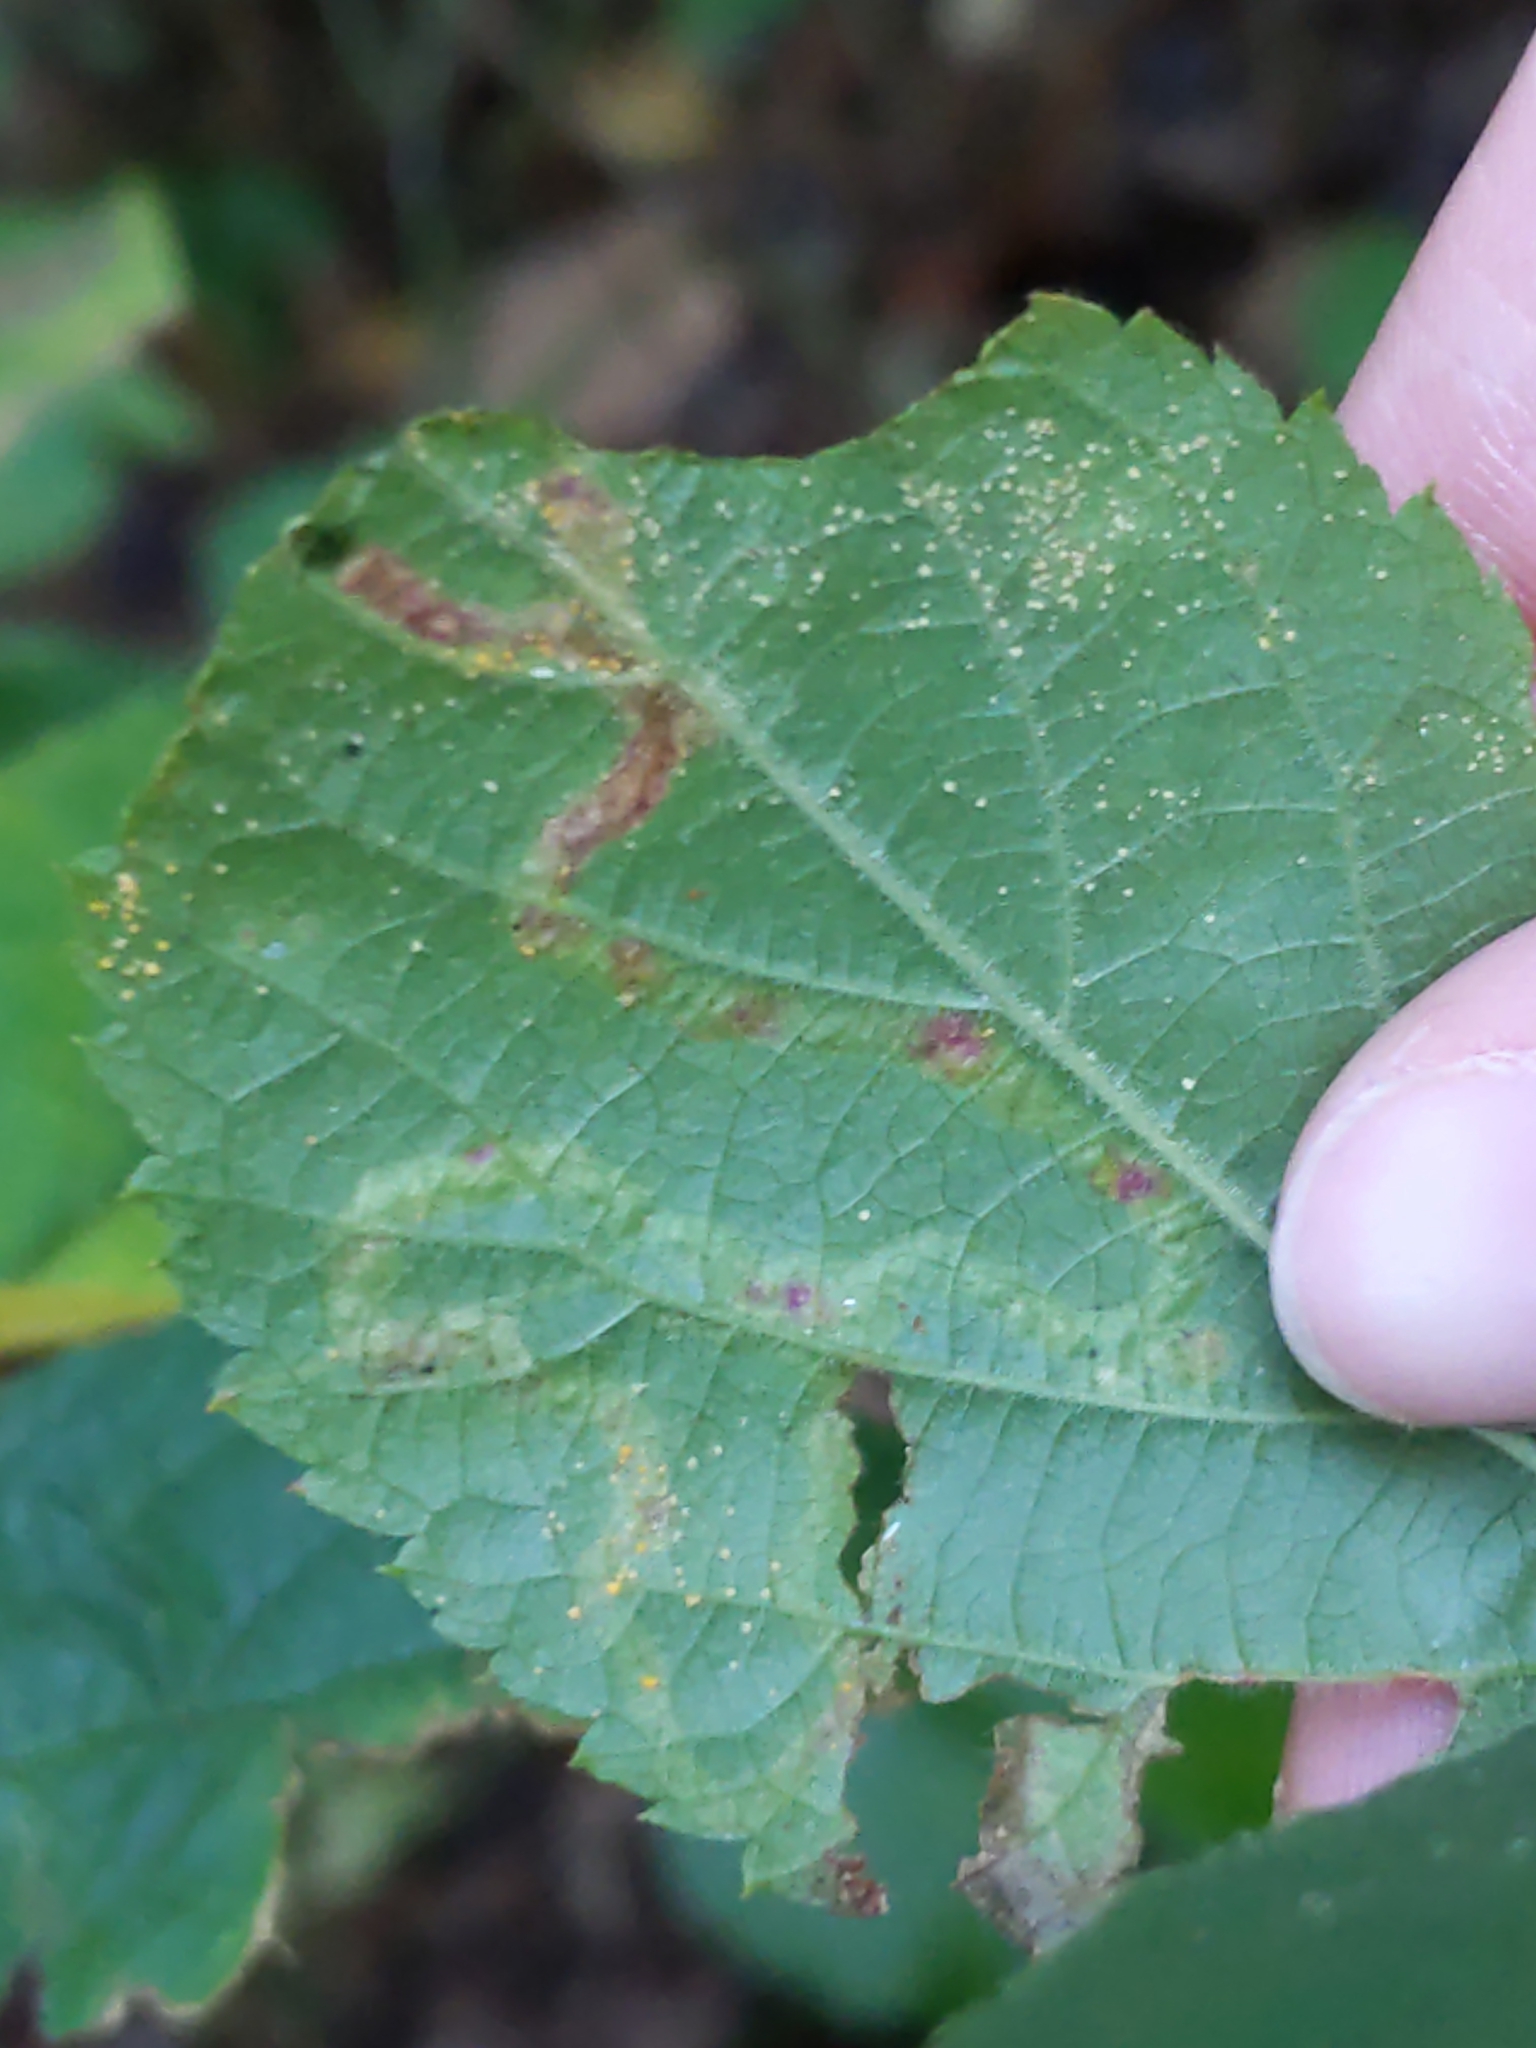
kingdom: Animalia
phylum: Arthropoda
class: Insecta
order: Diptera
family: Agromyzidae
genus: Agromyza
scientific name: Agromyza vockerothi
